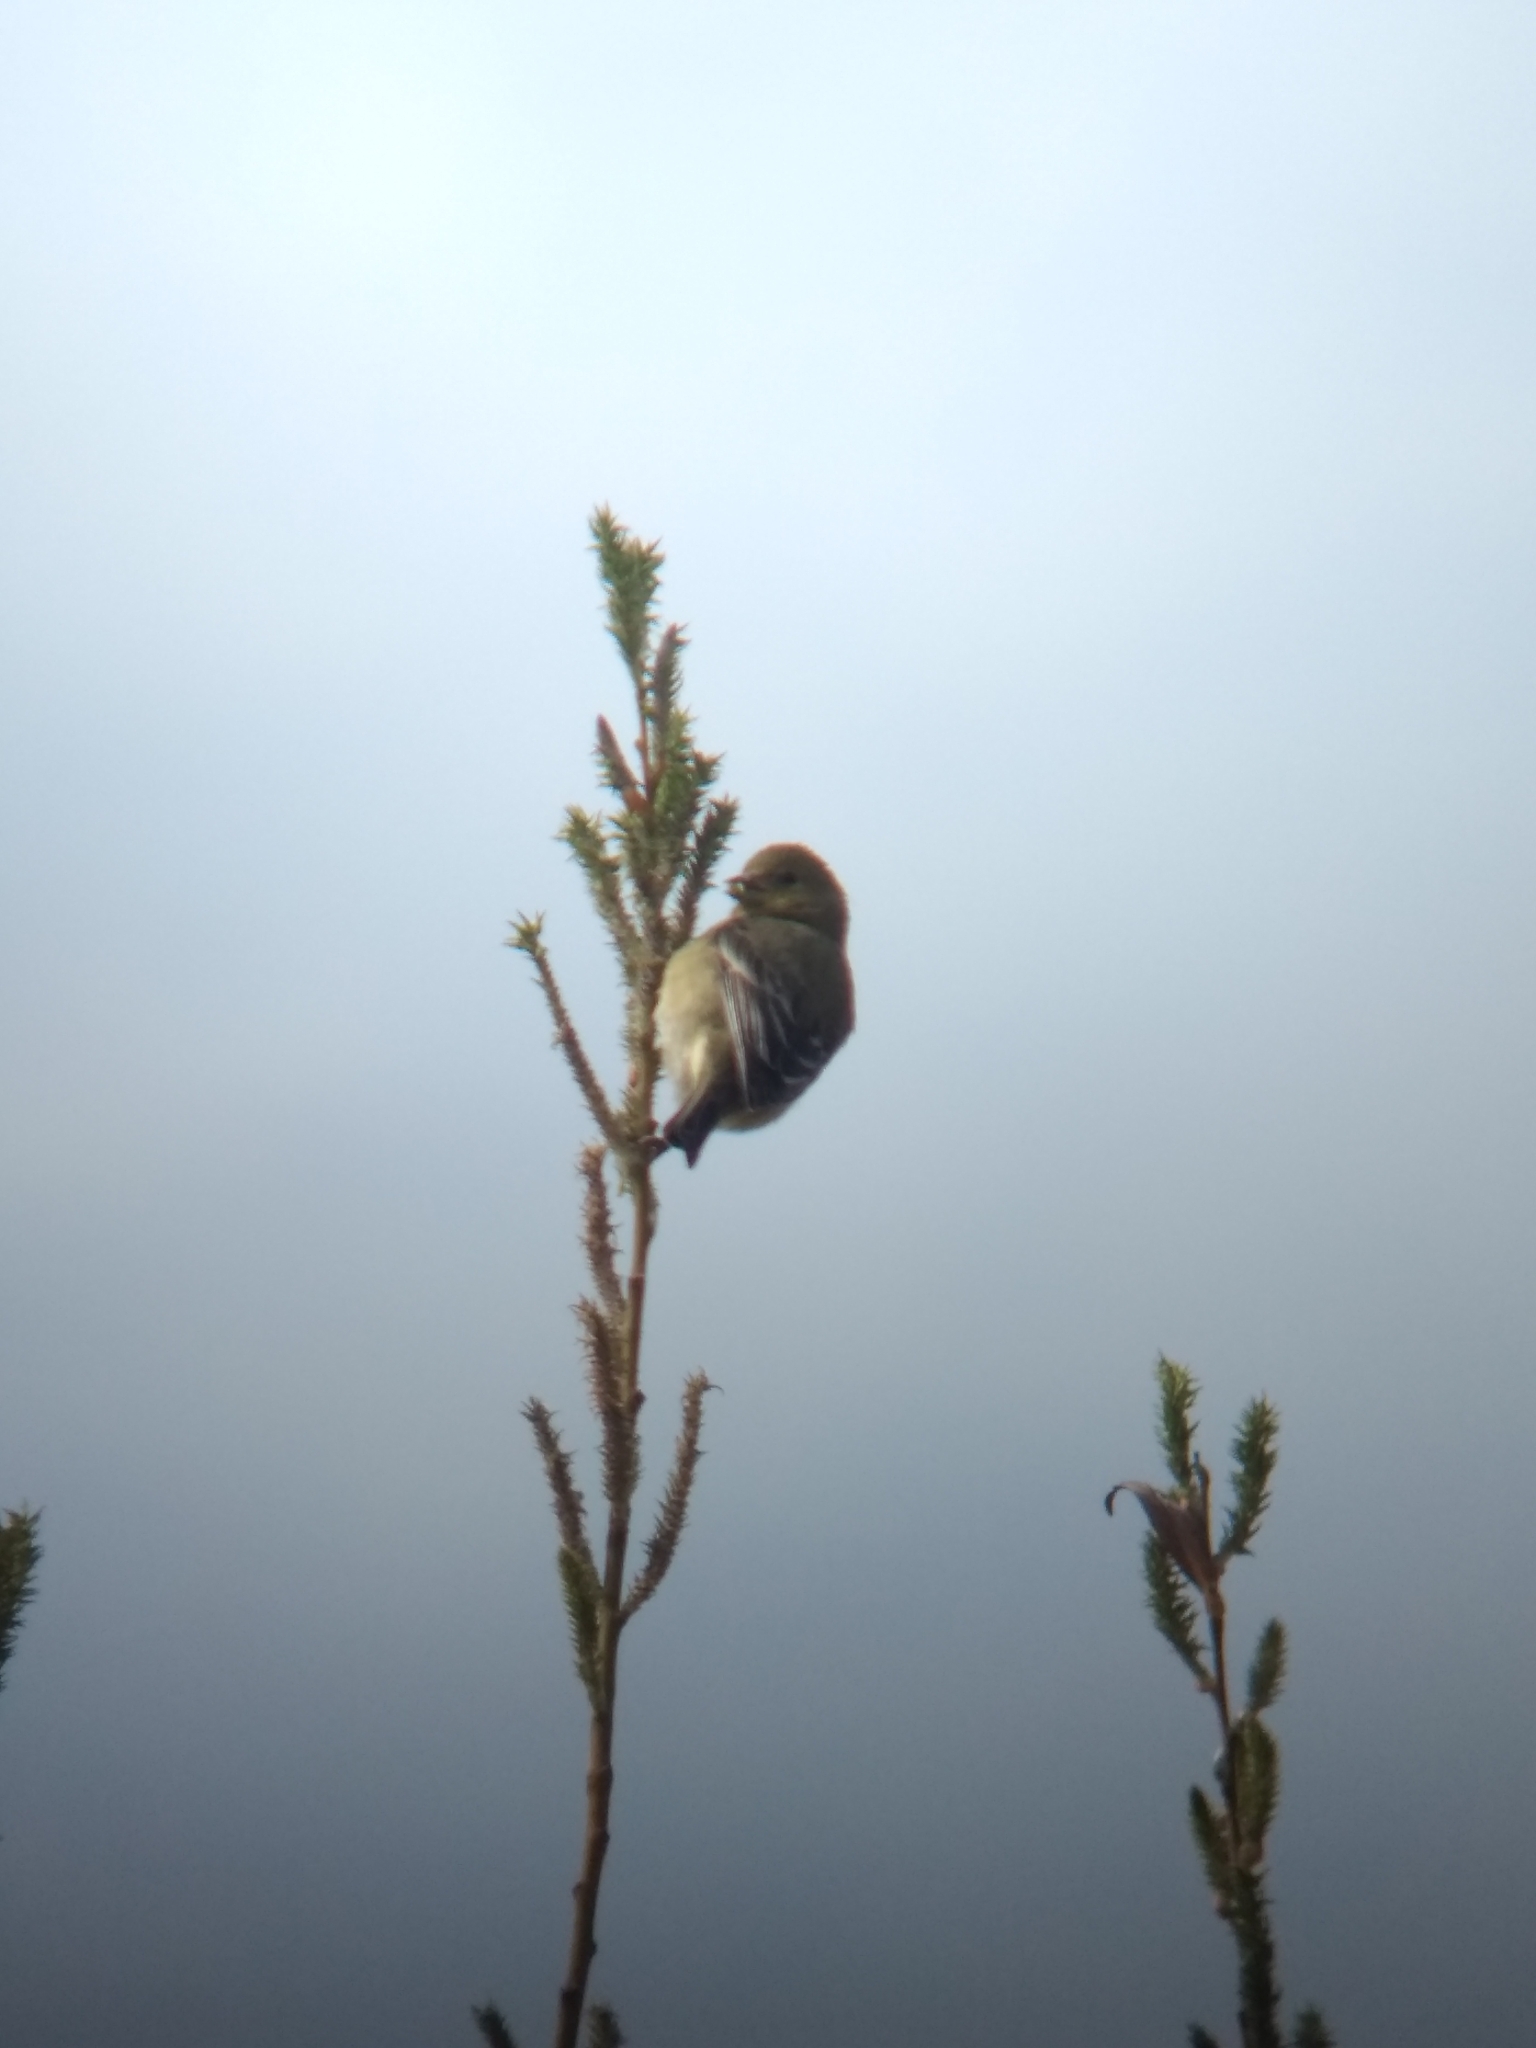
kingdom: Animalia
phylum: Chordata
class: Aves
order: Passeriformes
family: Fringillidae
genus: Spinus
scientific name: Spinus psaltria
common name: Lesser goldfinch
